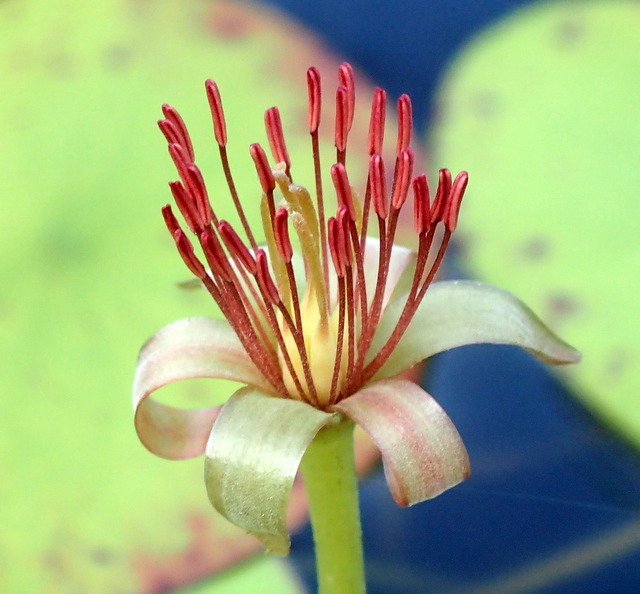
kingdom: Plantae
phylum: Tracheophyta
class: Magnoliopsida
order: Nymphaeales
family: Cabombaceae
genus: Brasenia
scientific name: Brasenia schreberi
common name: Water-shield
